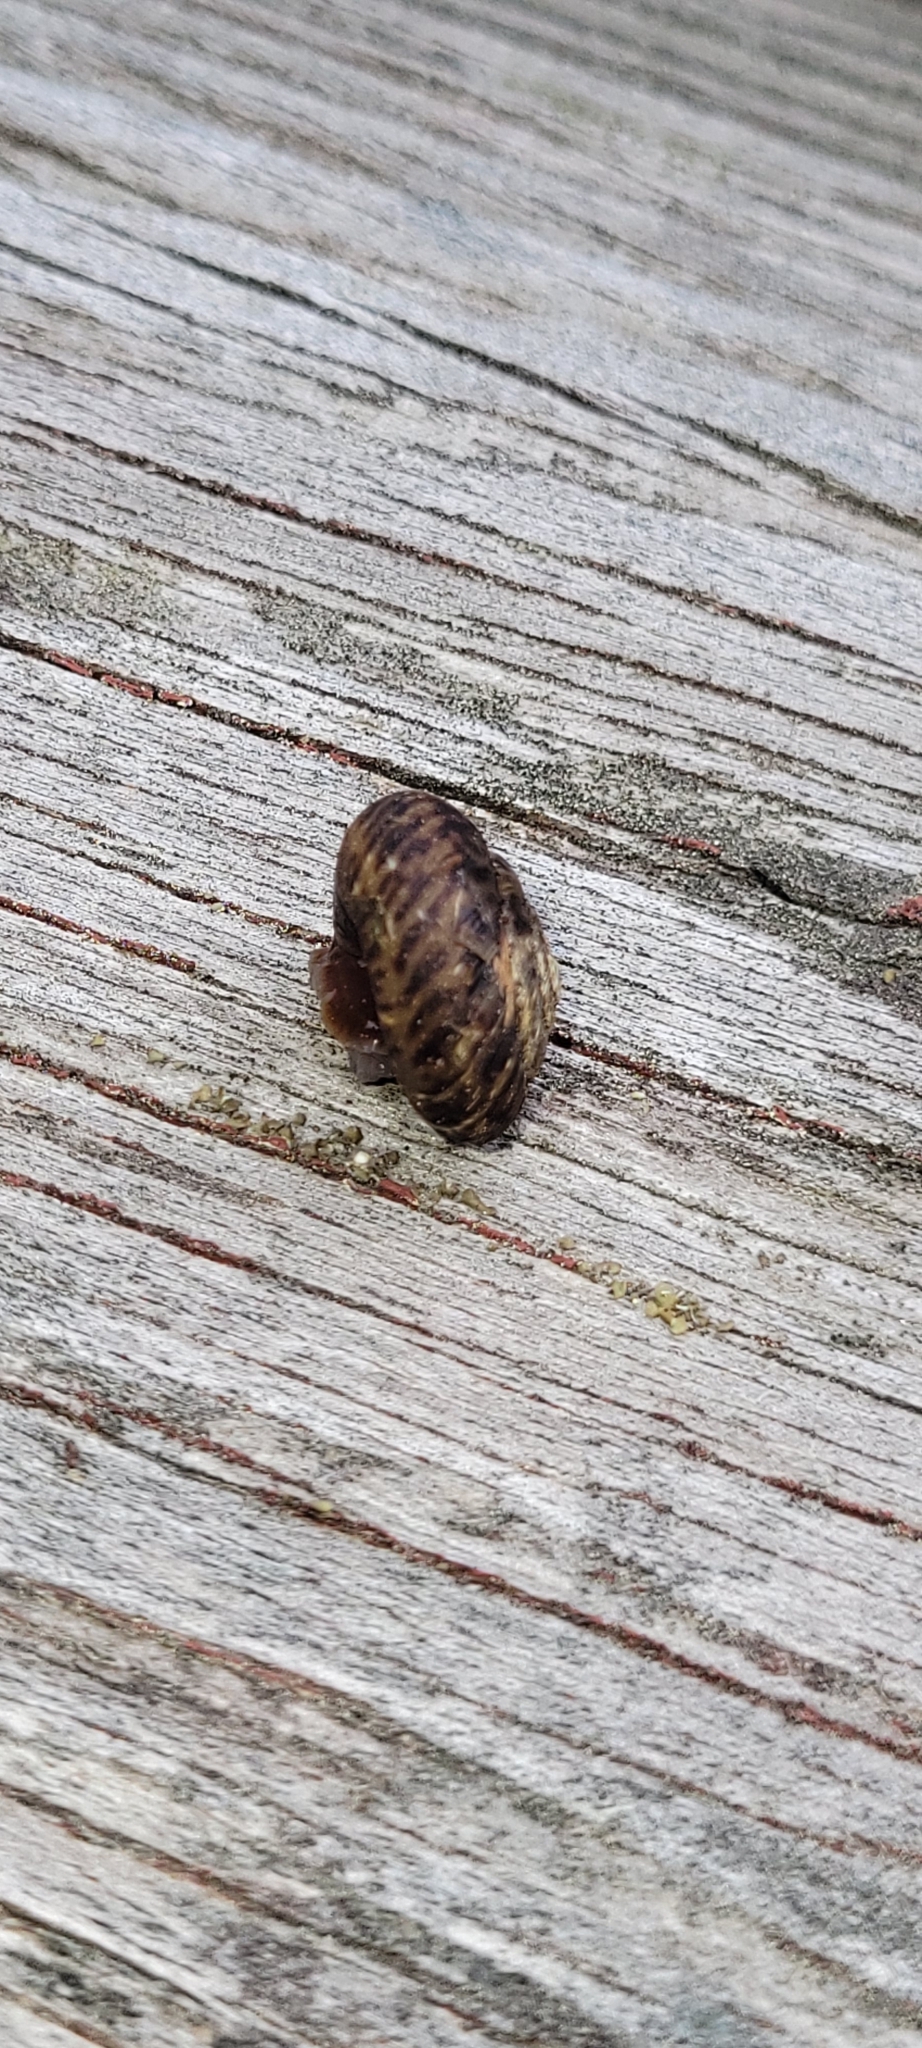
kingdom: Animalia
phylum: Mollusca
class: Gastropoda
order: Stylommatophora
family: Discidae
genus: Anguispira
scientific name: Anguispira alternata
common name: Flamed tigersnail
